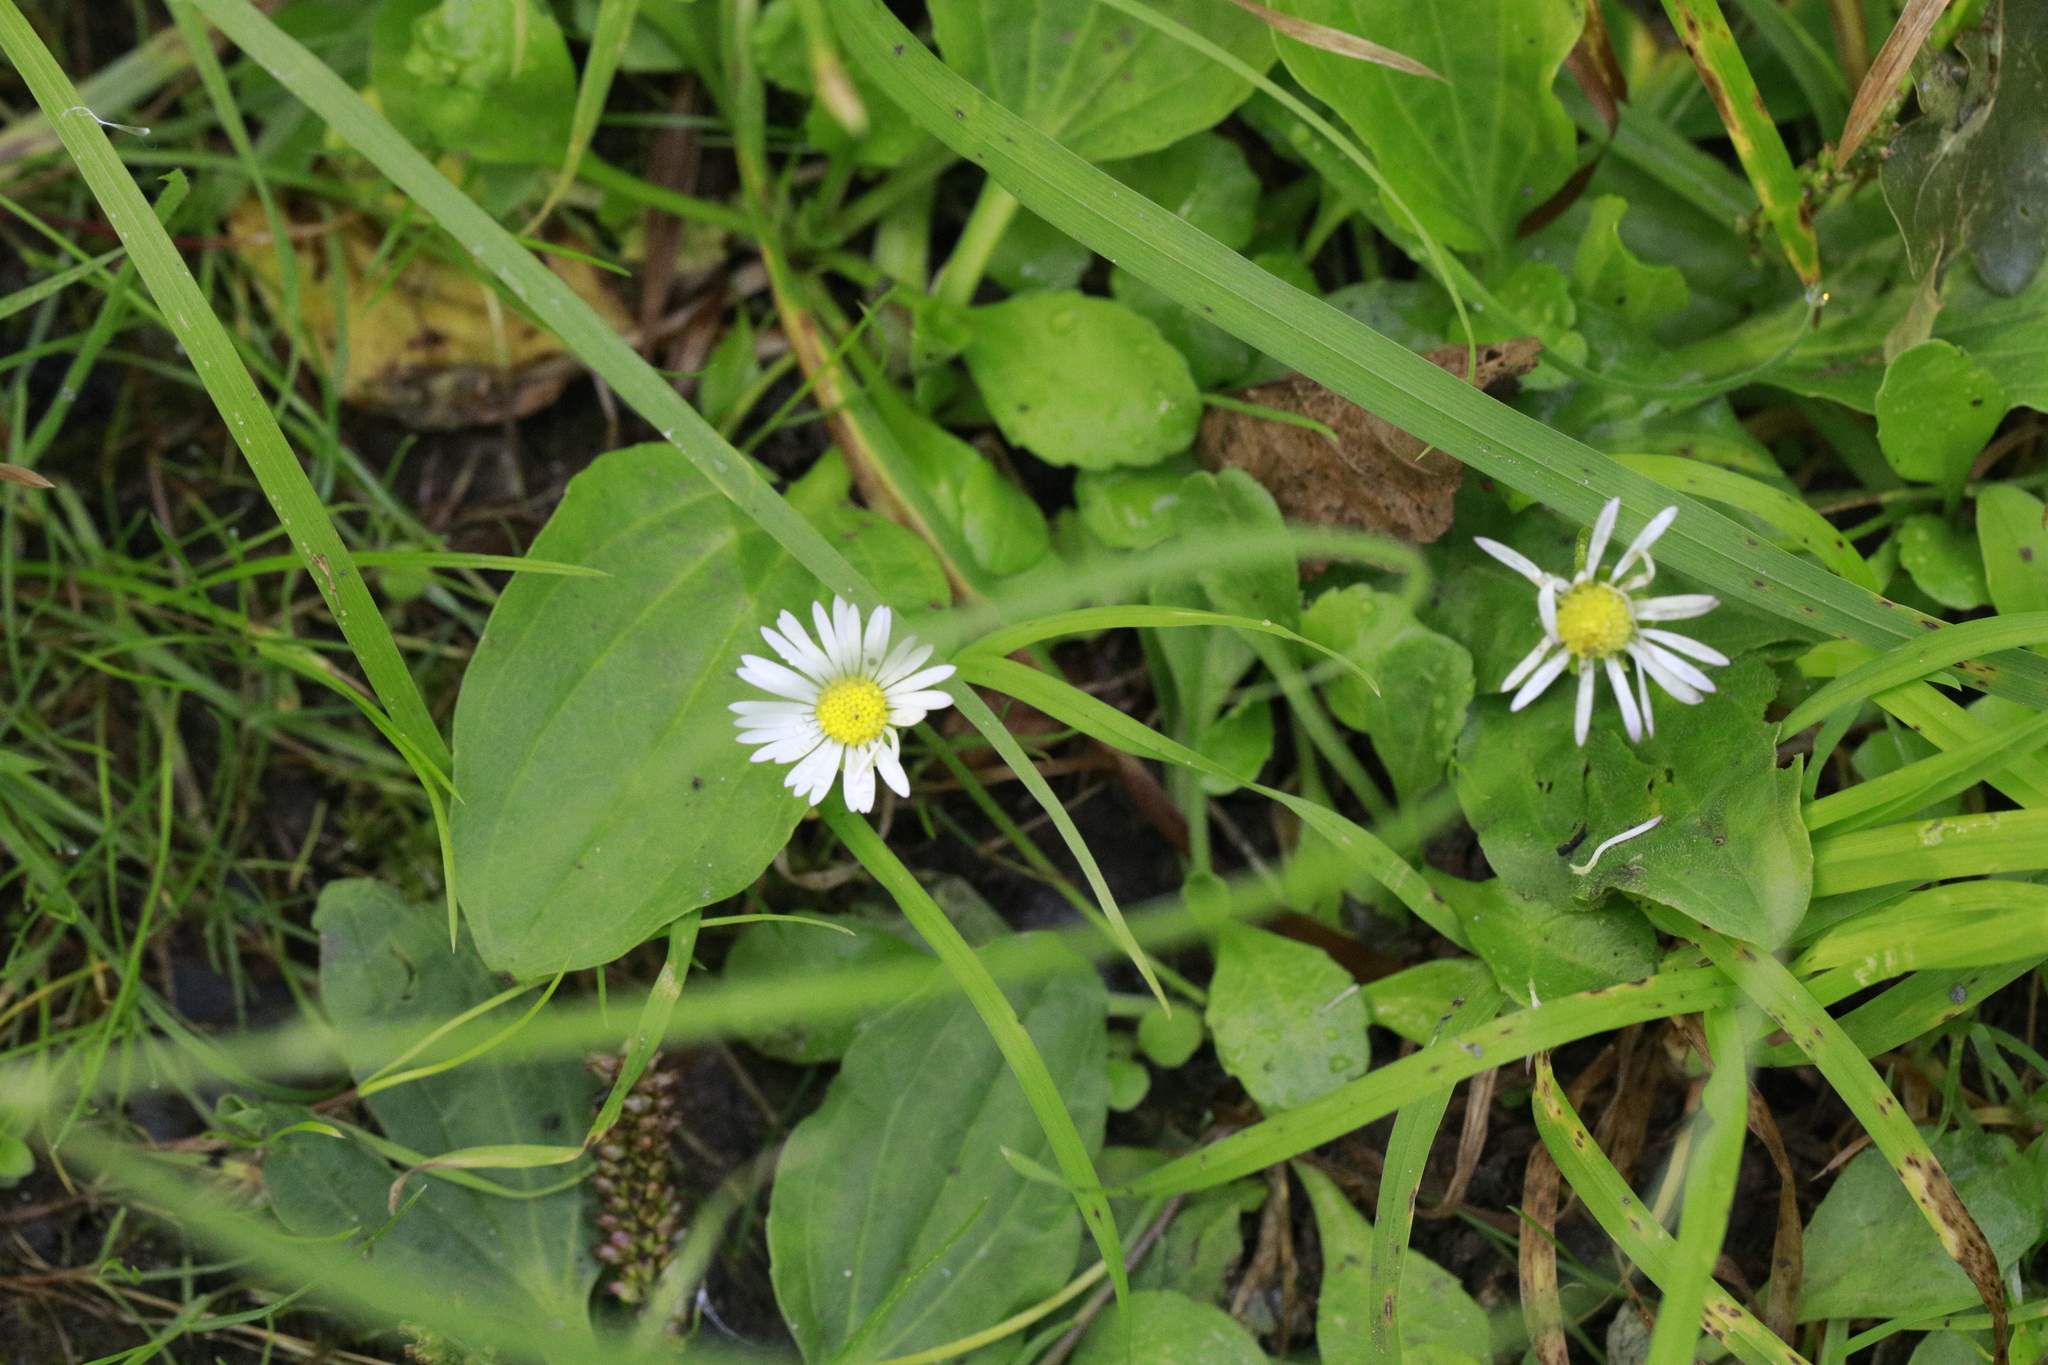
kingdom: Plantae
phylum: Tracheophyta
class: Magnoliopsida
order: Asterales
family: Asteraceae
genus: Bellis
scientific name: Bellis perennis
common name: Lawndaisy
